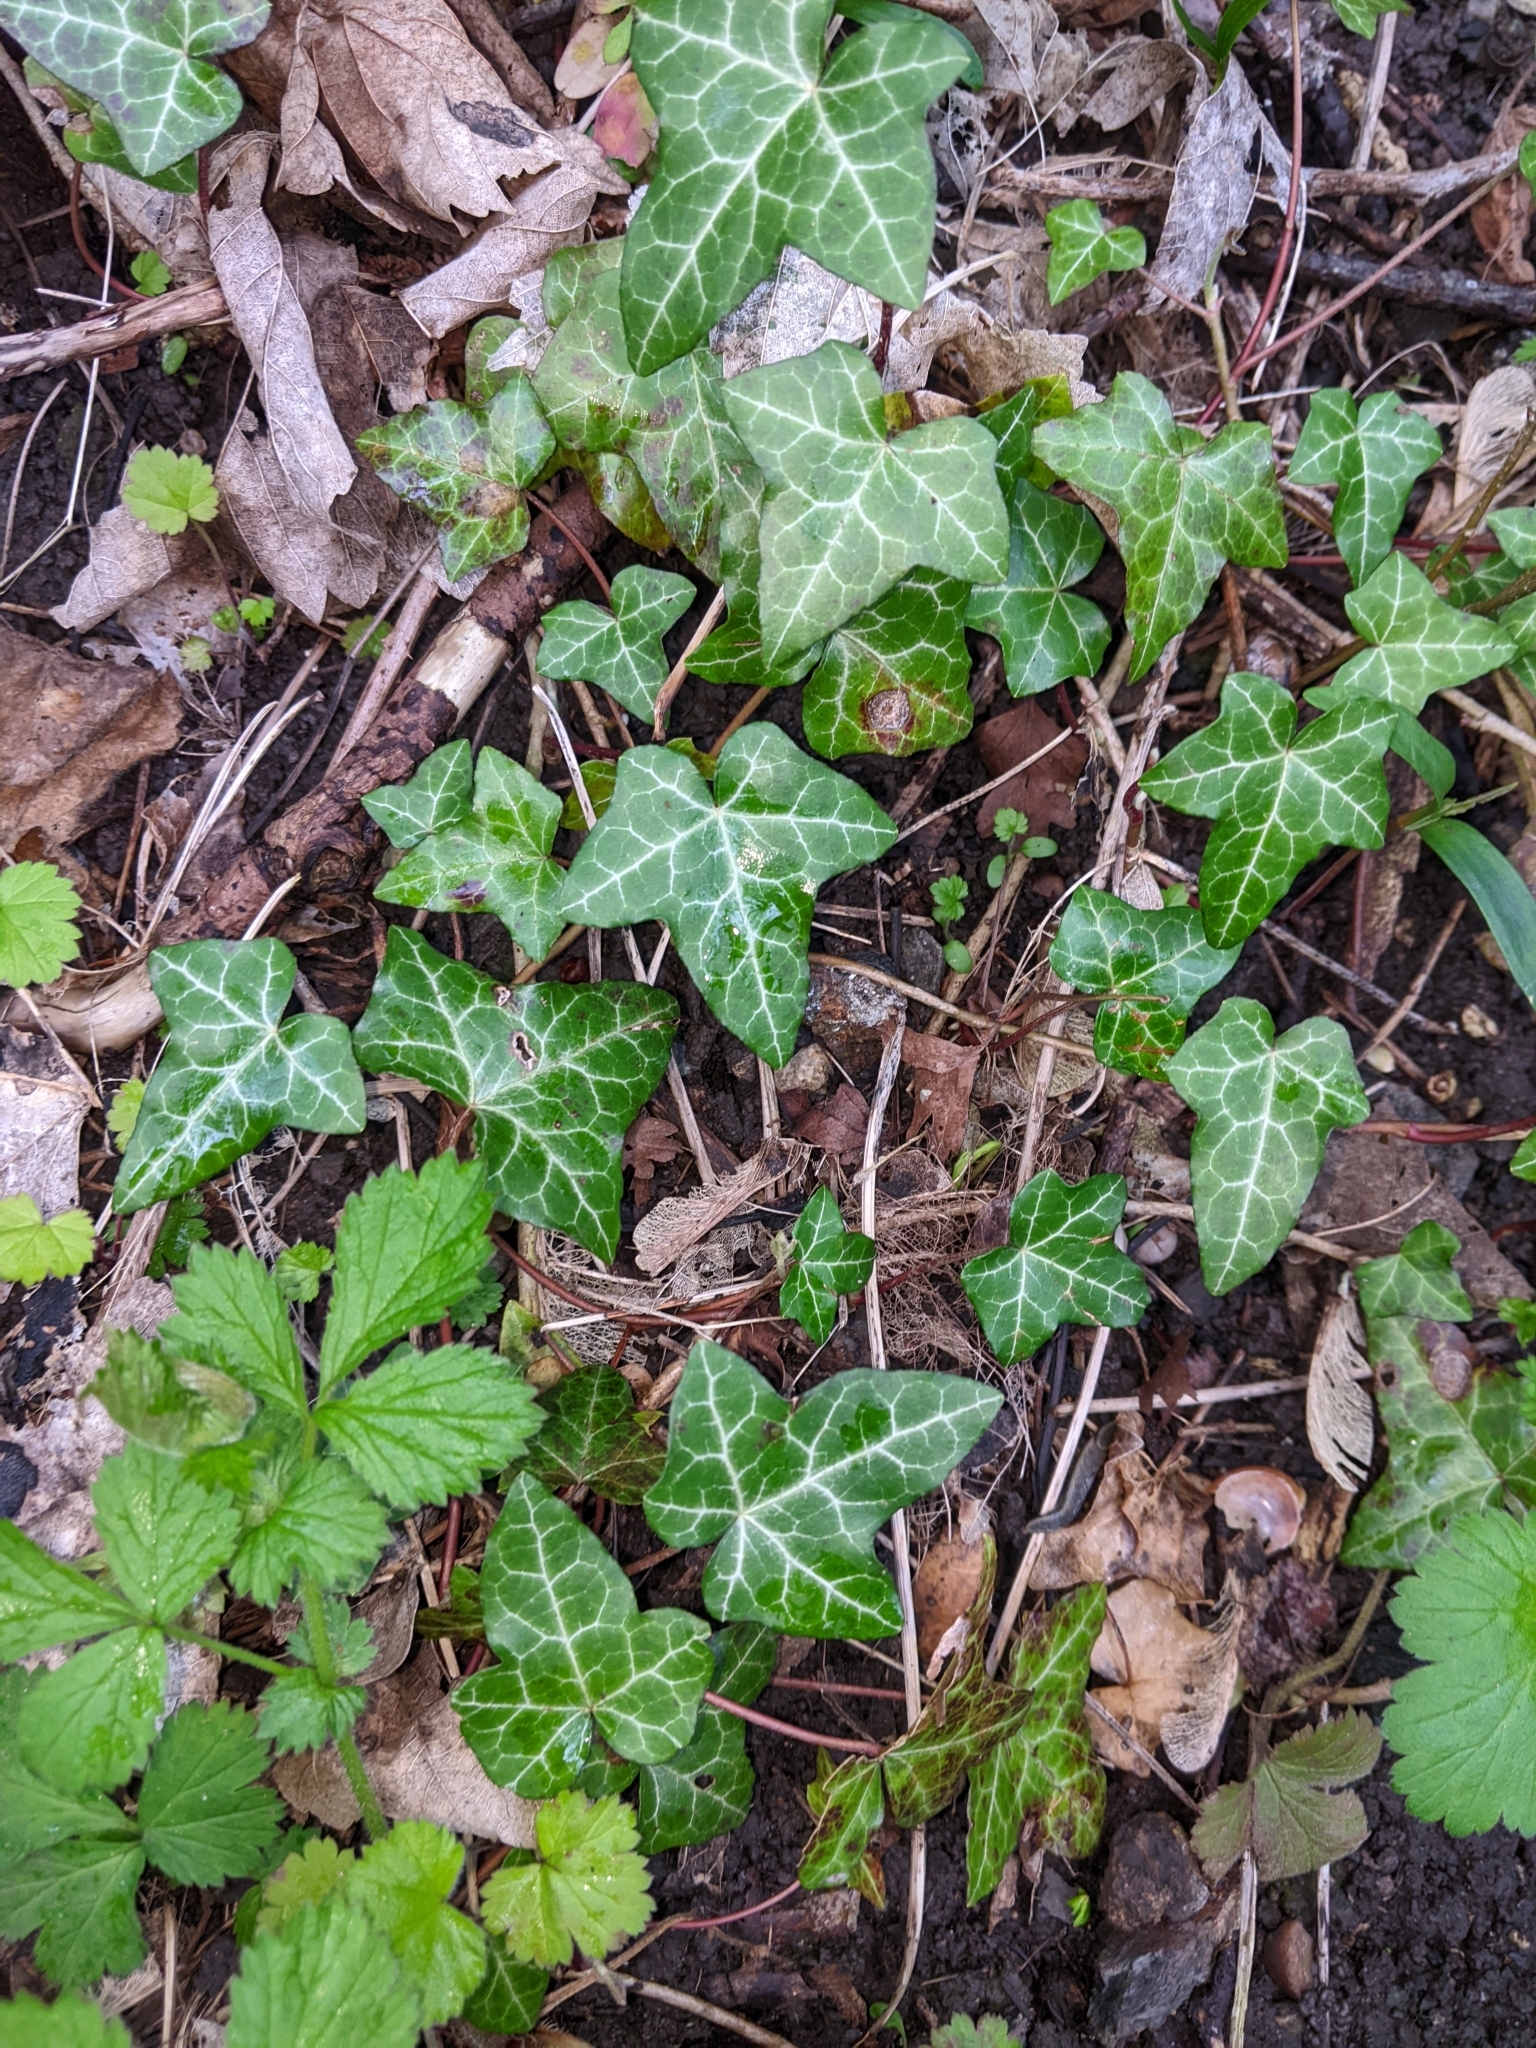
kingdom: Plantae
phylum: Tracheophyta
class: Magnoliopsida
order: Apiales
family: Araliaceae
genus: Hedera
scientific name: Hedera helix
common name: Ivy
